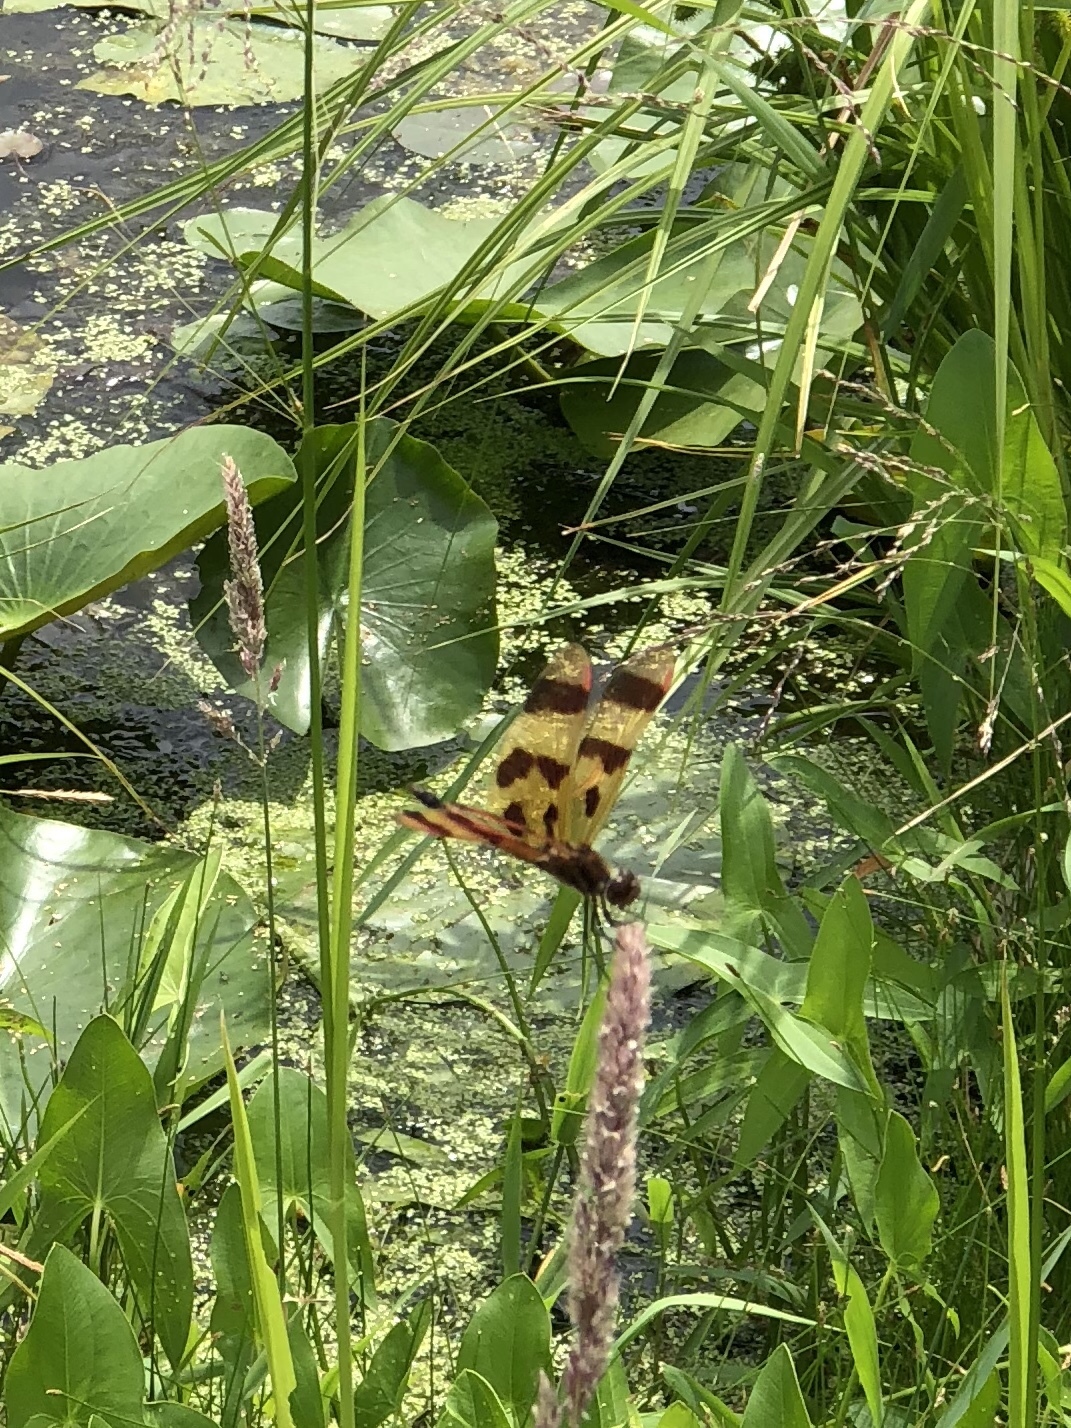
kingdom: Animalia
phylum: Arthropoda
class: Insecta
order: Odonata
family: Libellulidae
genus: Celithemis
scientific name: Celithemis eponina
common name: Halloween pennant
